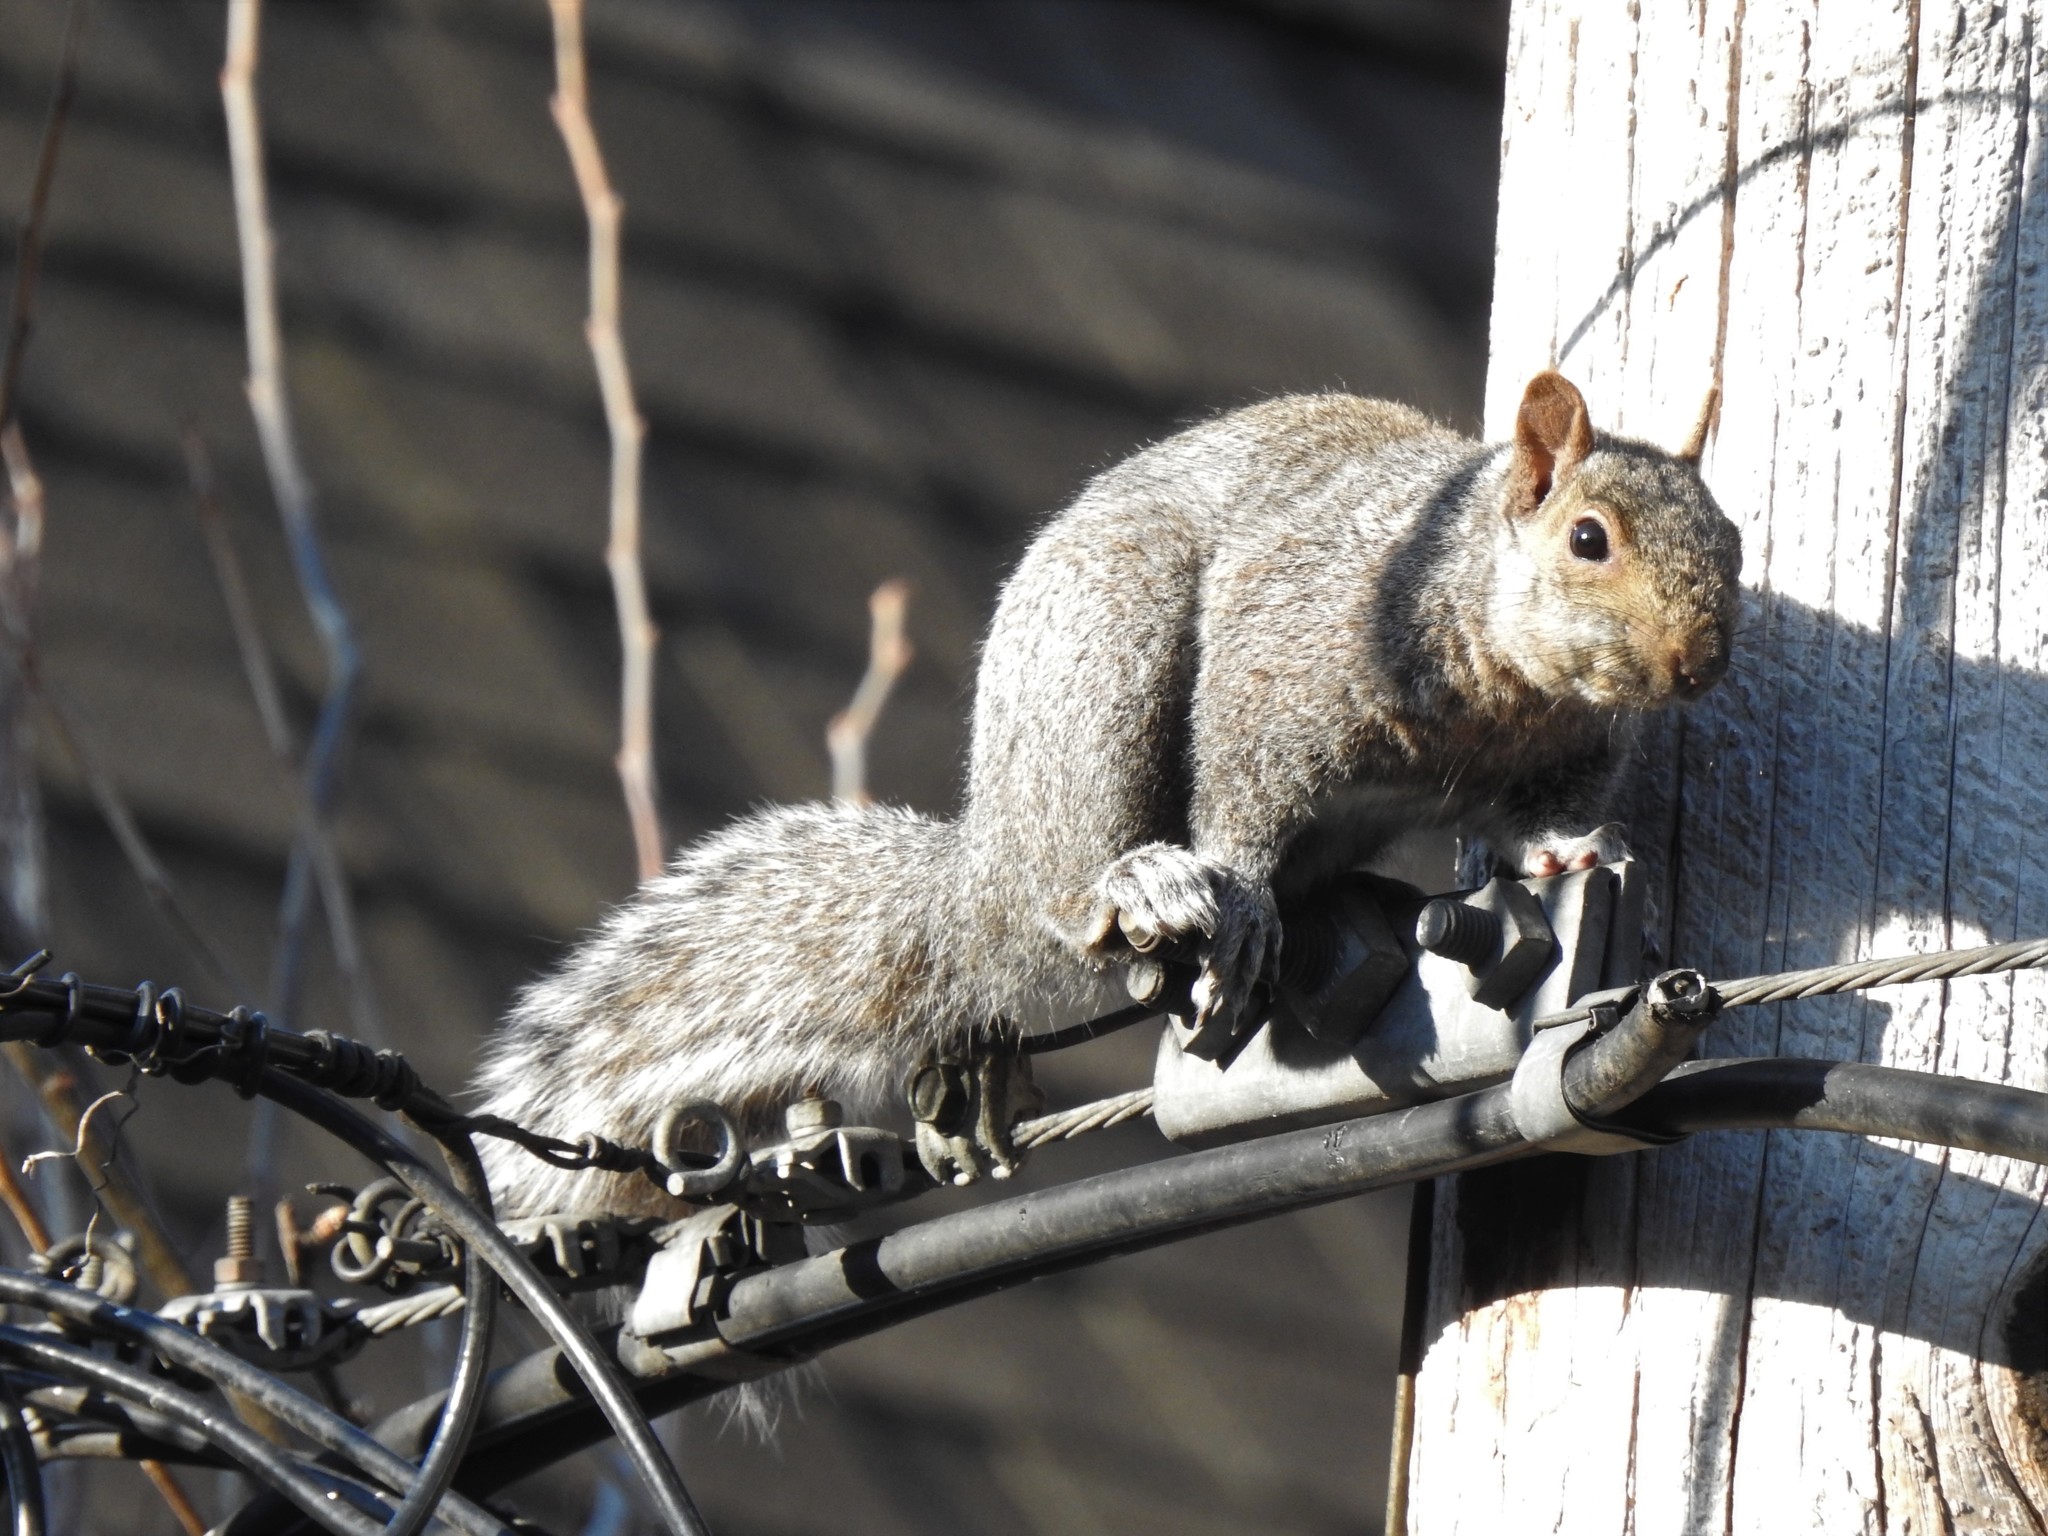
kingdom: Animalia
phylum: Chordata
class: Mammalia
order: Rodentia
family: Sciuridae
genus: Sciurus
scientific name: Sciurus carolinensis
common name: Eastern gray squirrel
